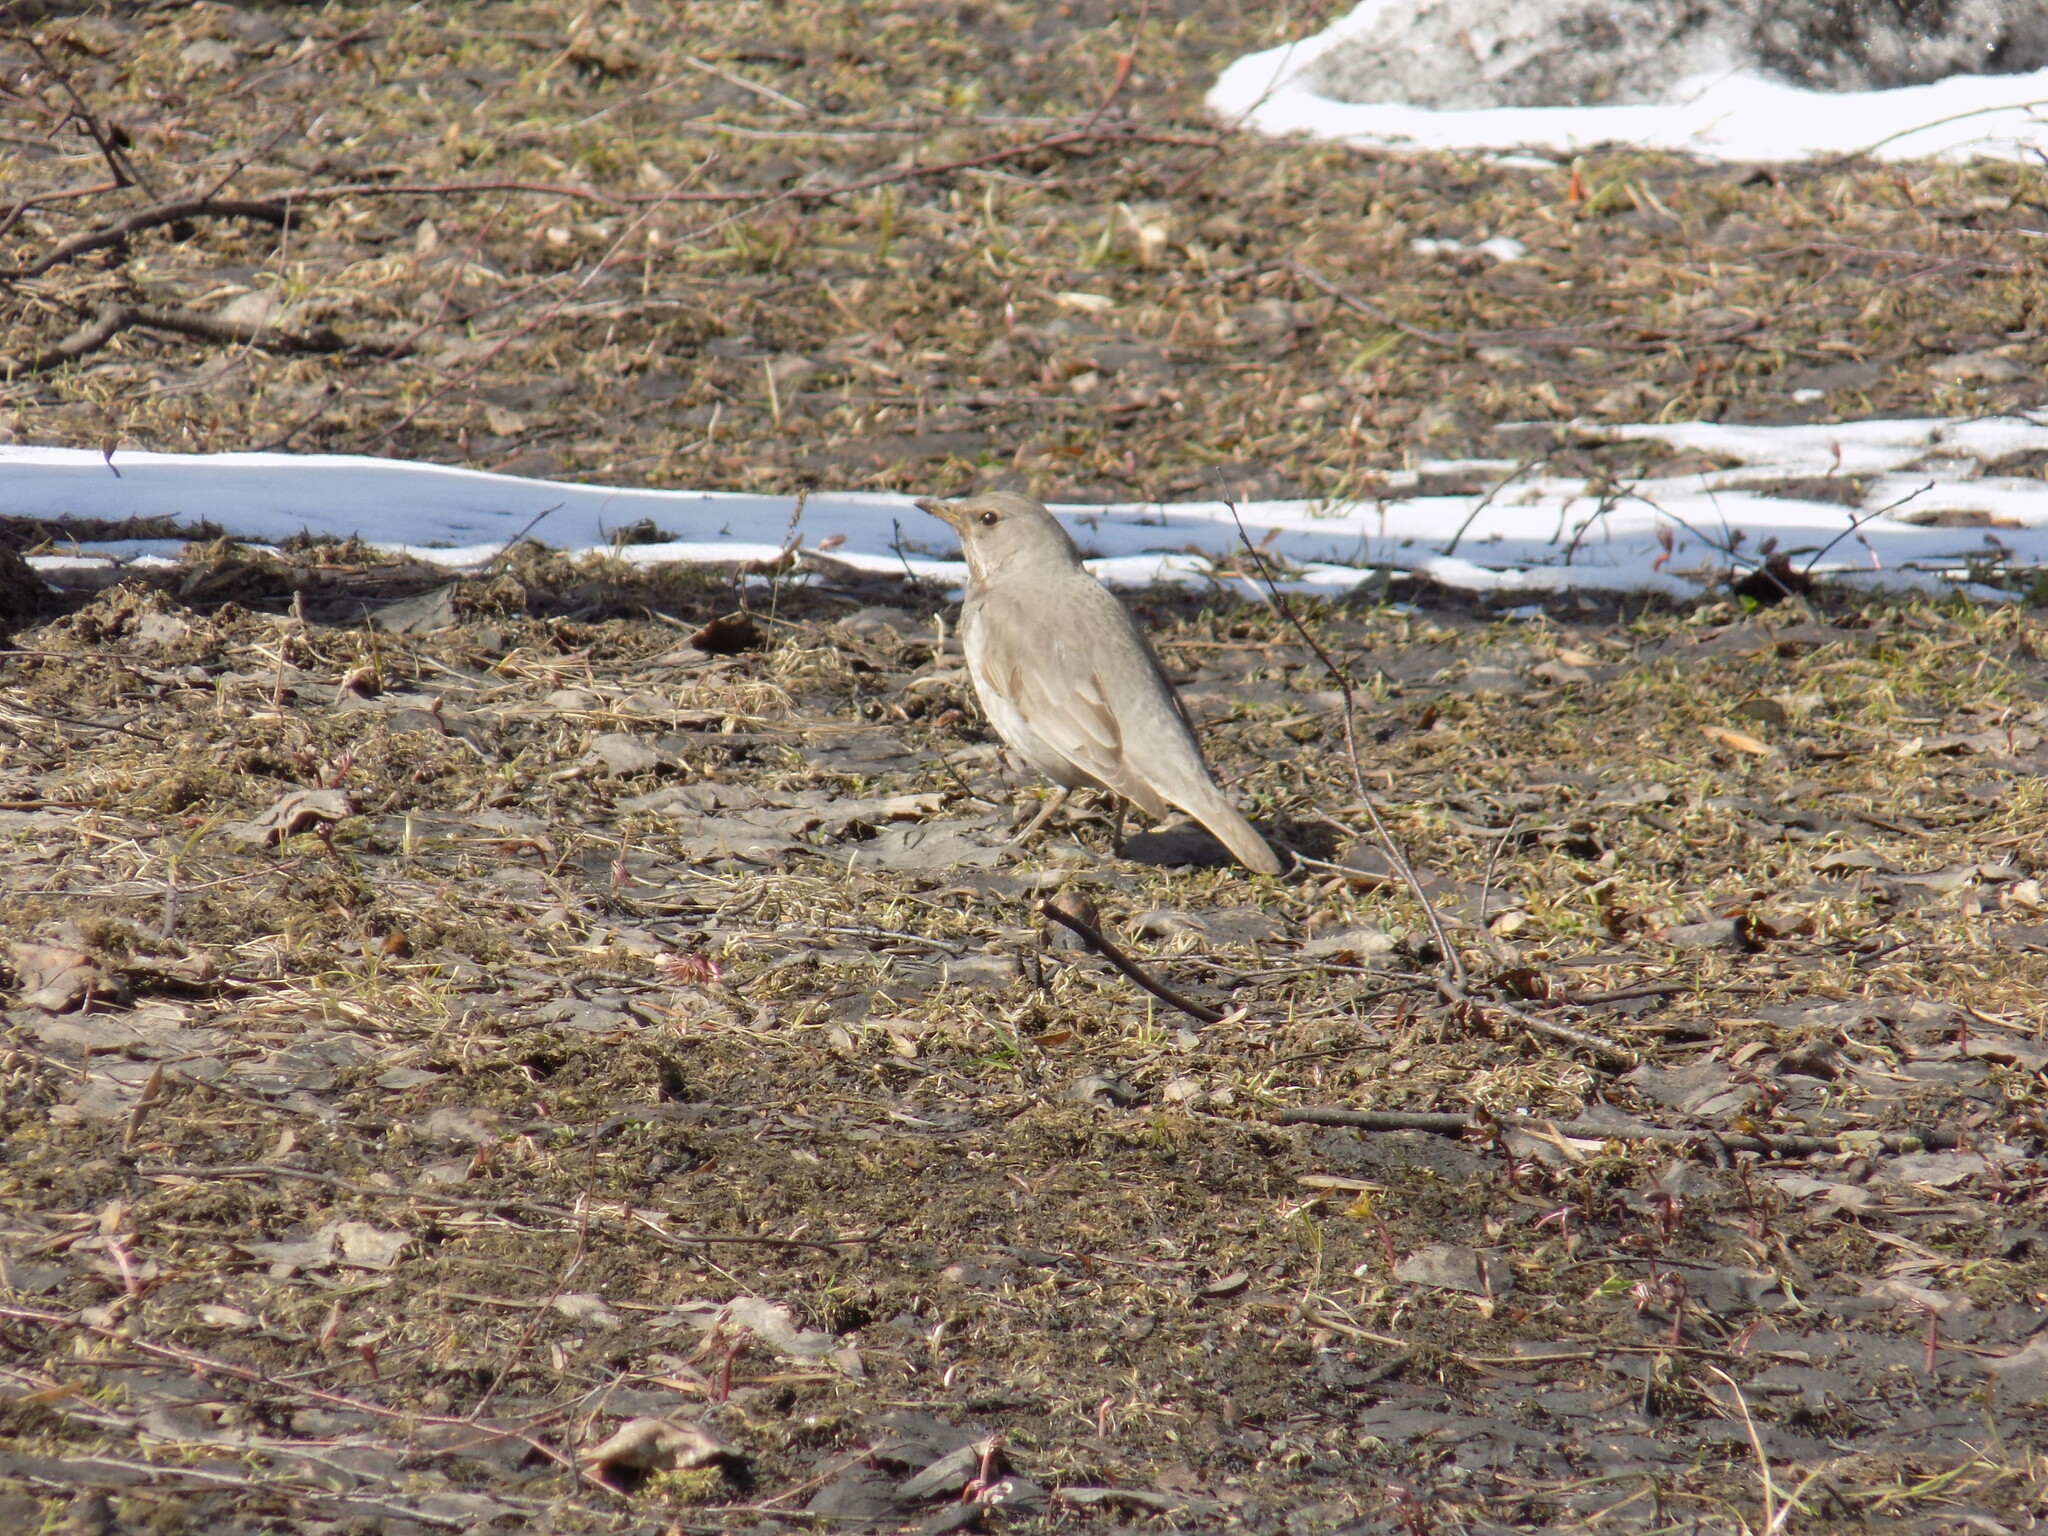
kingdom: Animalia
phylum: Chordata
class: Aves
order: Passeriformes
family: Turdidae
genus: Turdus
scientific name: Turdus atrogularis
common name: Black-throated thrush
